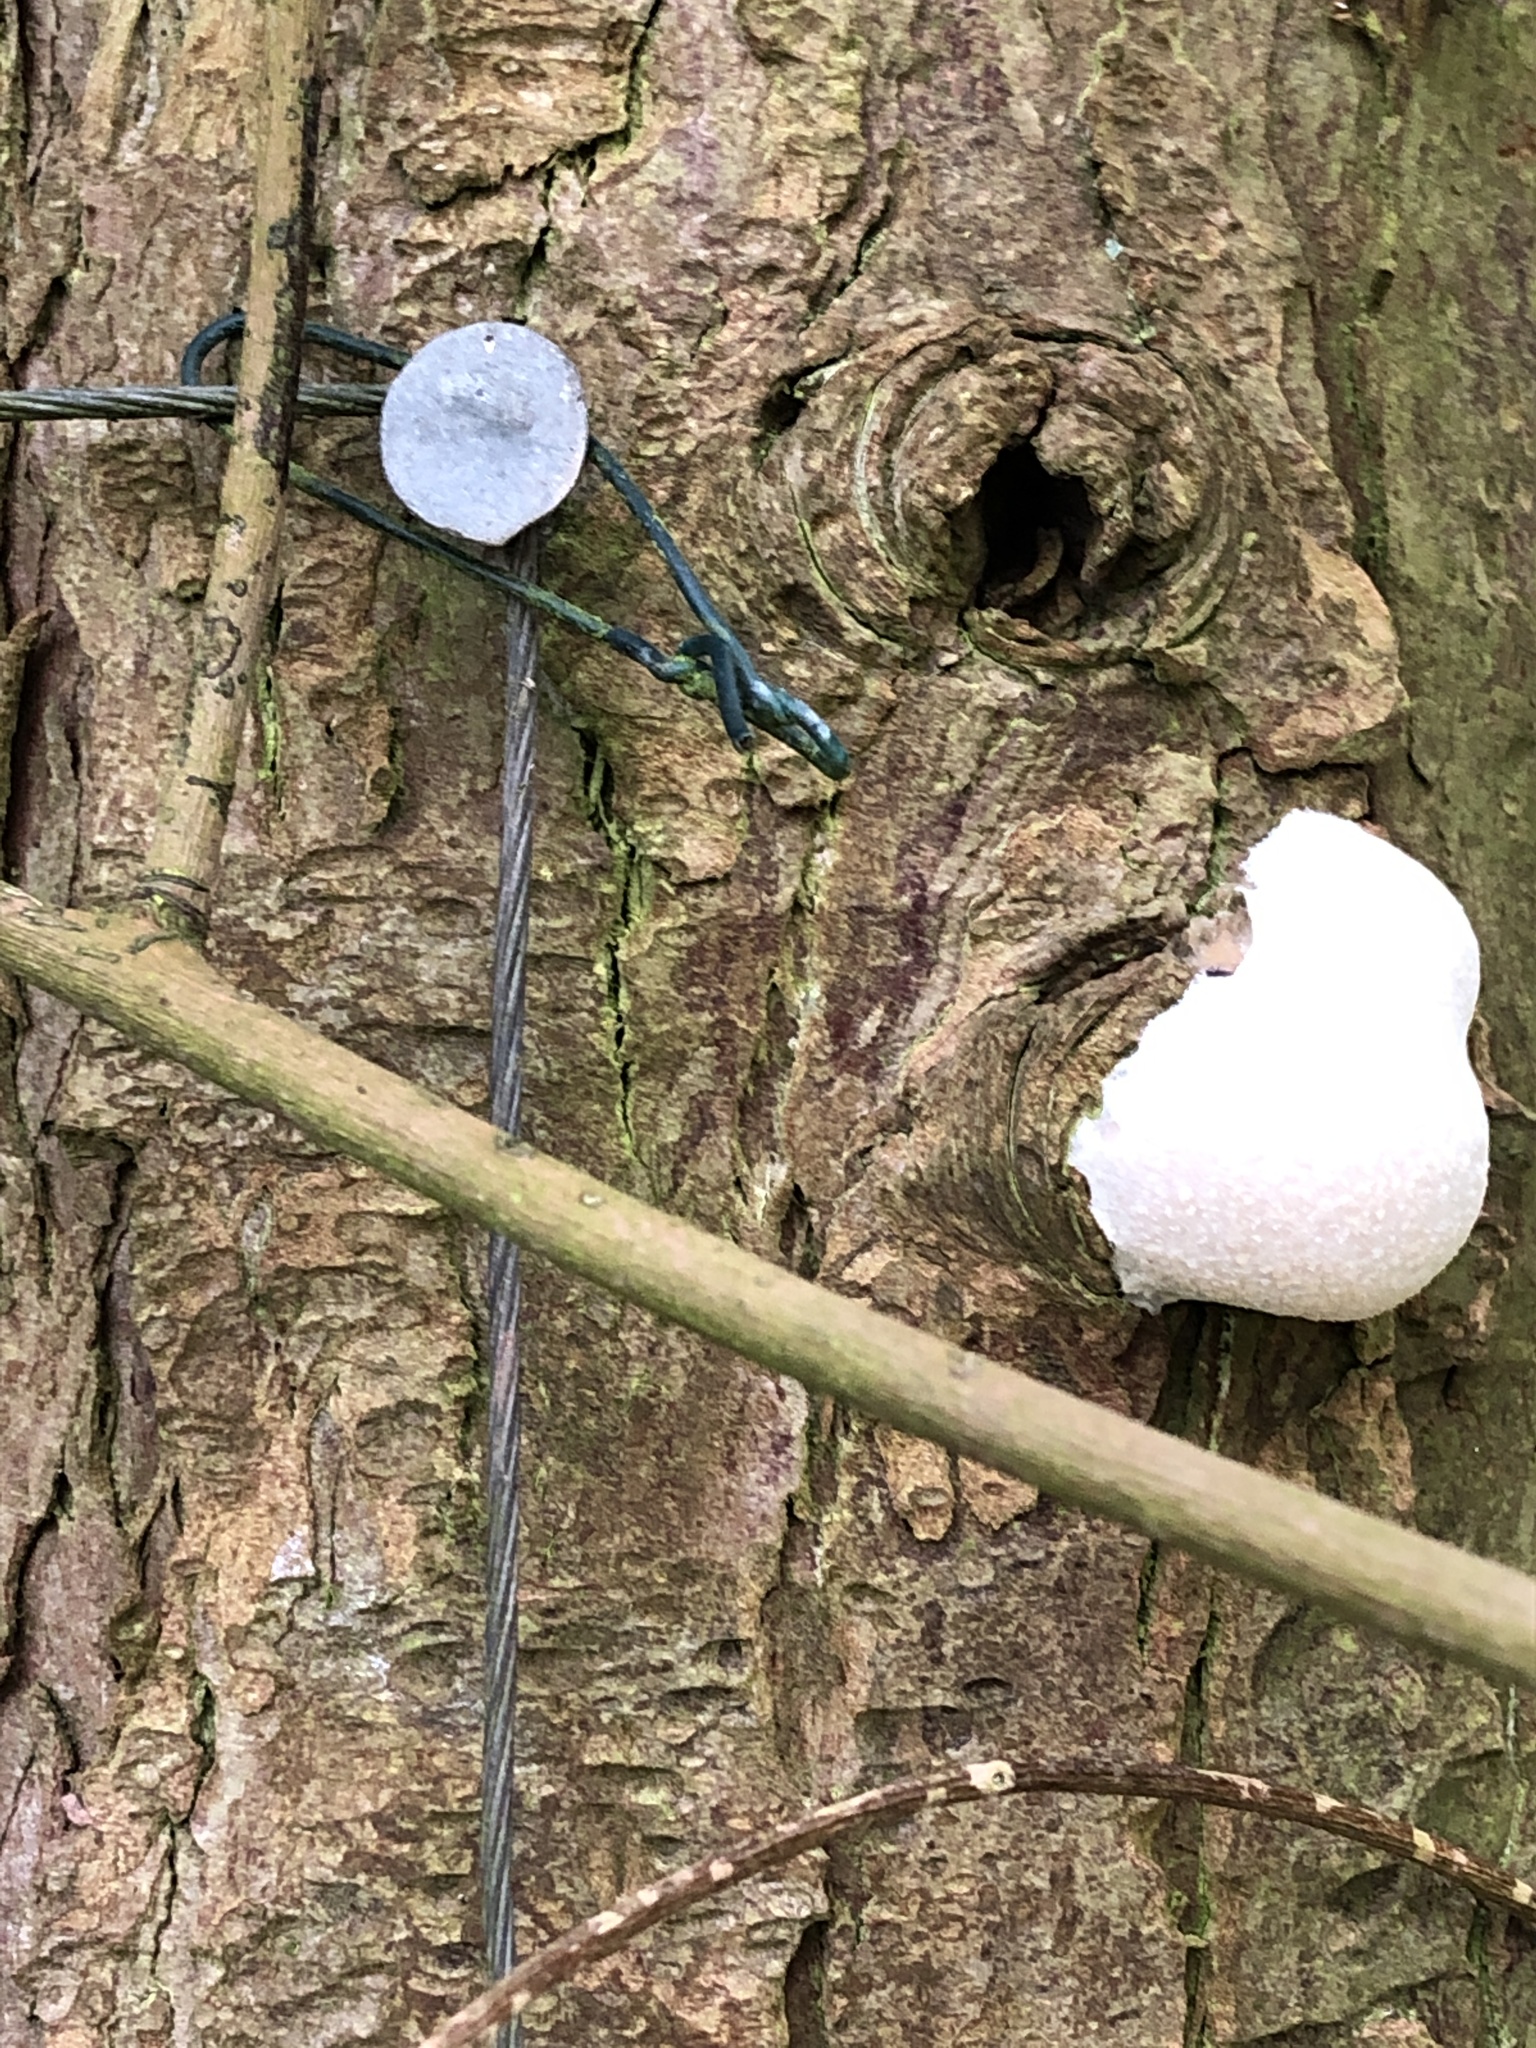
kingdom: Protozoa
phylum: Mycetozoa
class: Myxomycetes
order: Cribrariales
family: Tubiferaceae
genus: Reticularia
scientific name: Reticularia lycoperdon
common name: False puffball
